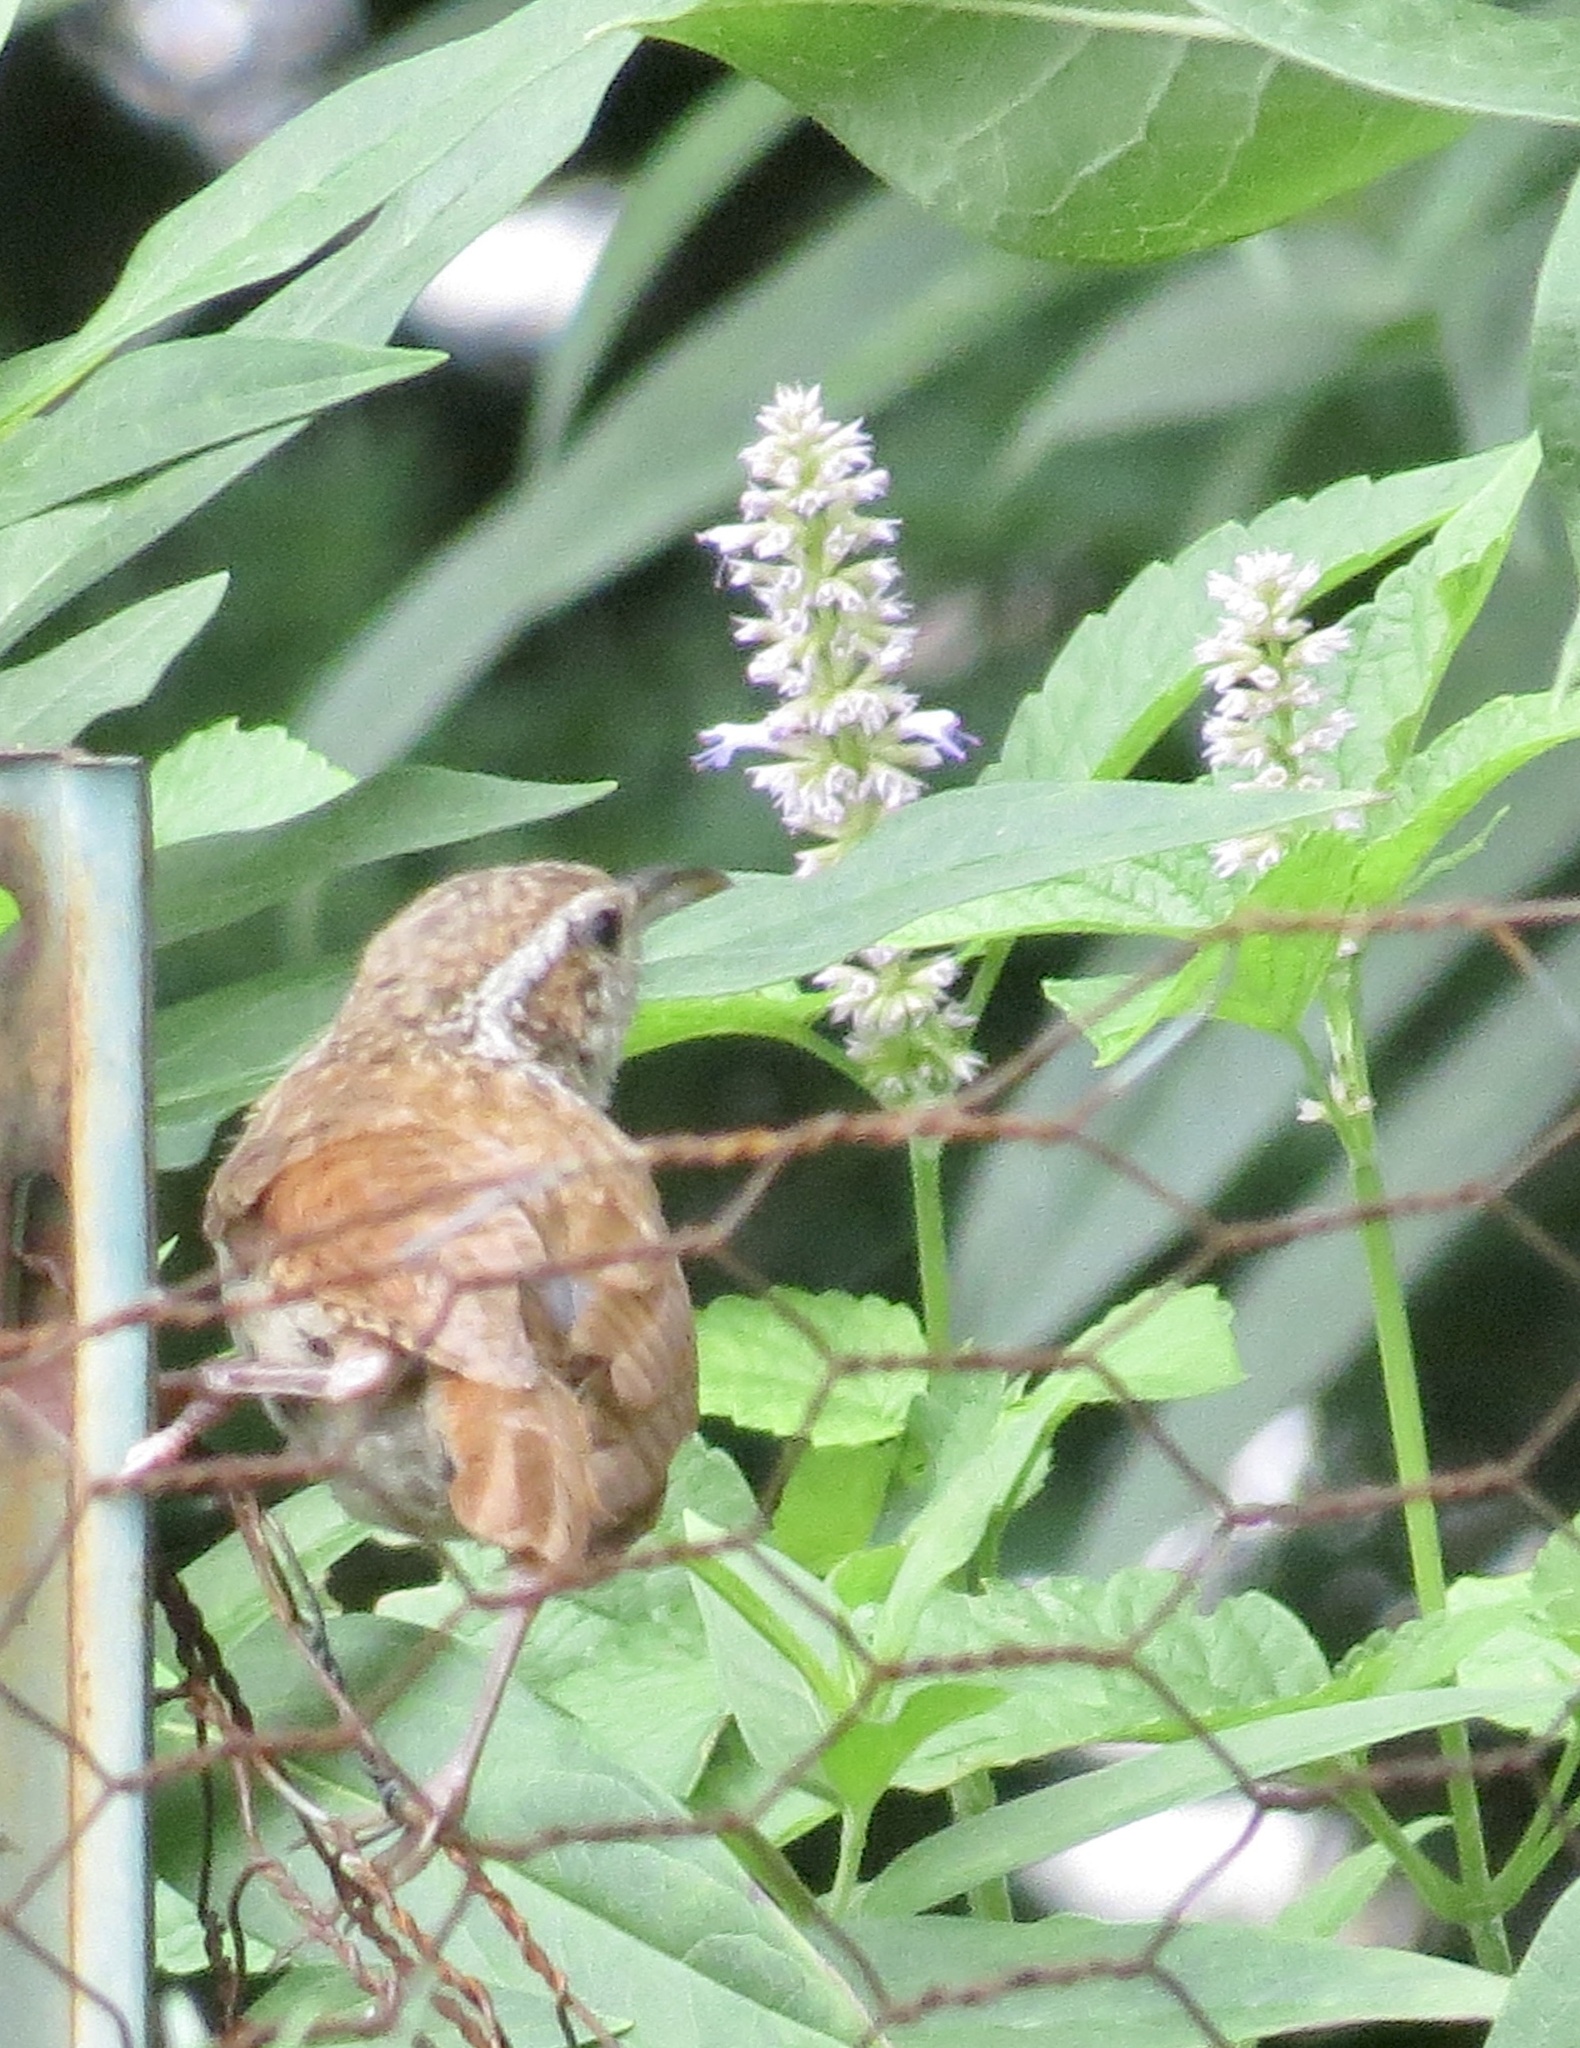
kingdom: Animalia
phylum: Chordata
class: Aves
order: Passeriformes
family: Troglodytidae
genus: Thryothorus
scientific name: Thryothorus ludovicianus
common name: Carolina wren
